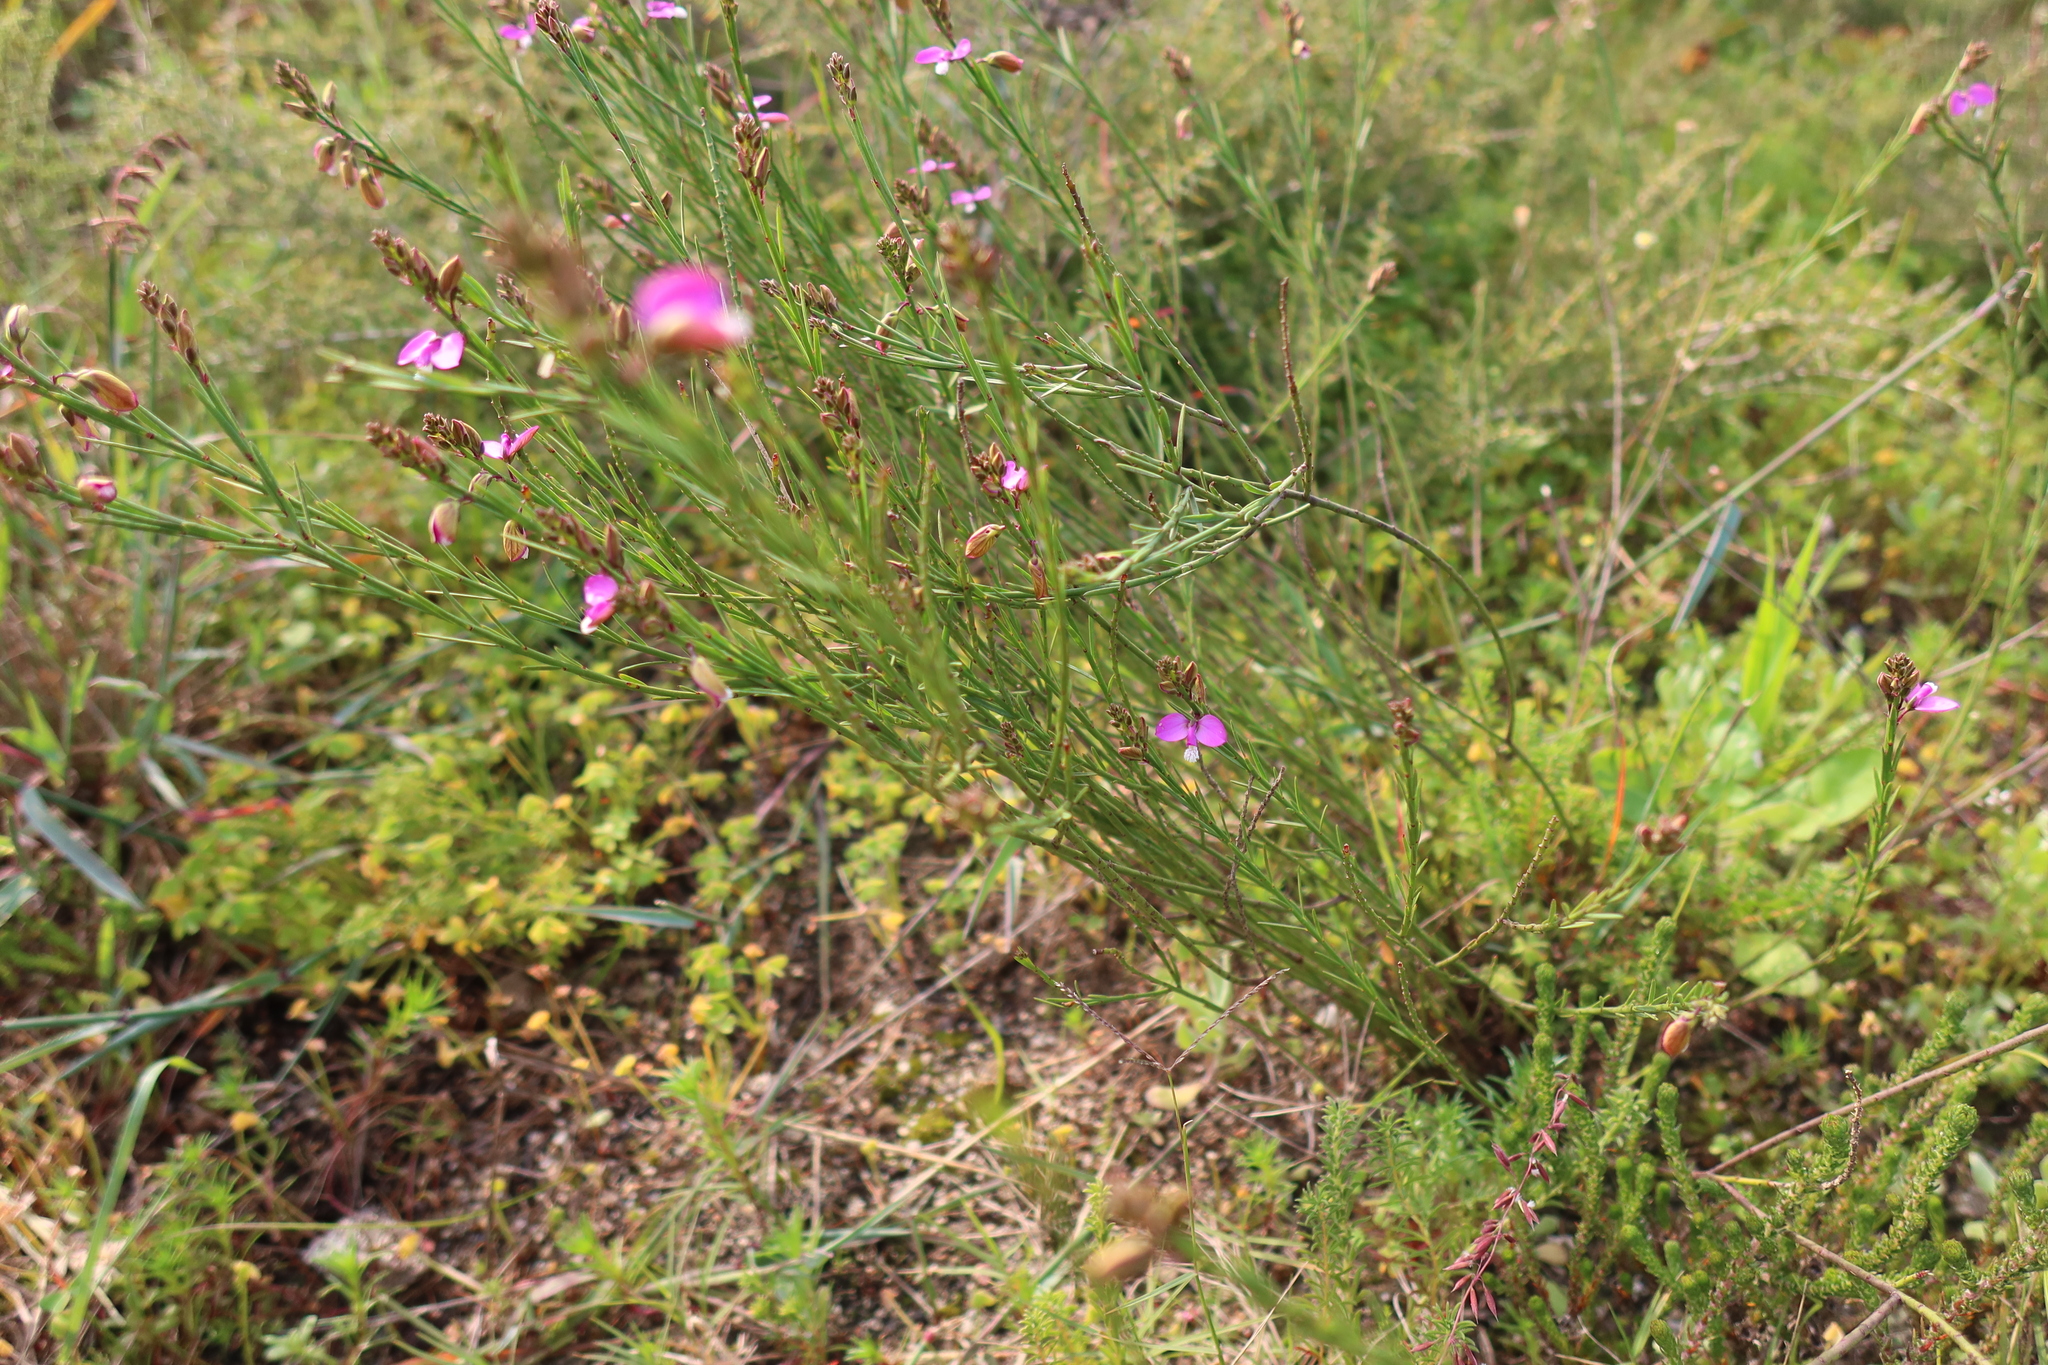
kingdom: Plantae
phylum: Tracheophyta
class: Magnoliopsida
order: Fabales
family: Polygalaceae
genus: Polygala
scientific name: Polygala garcini
